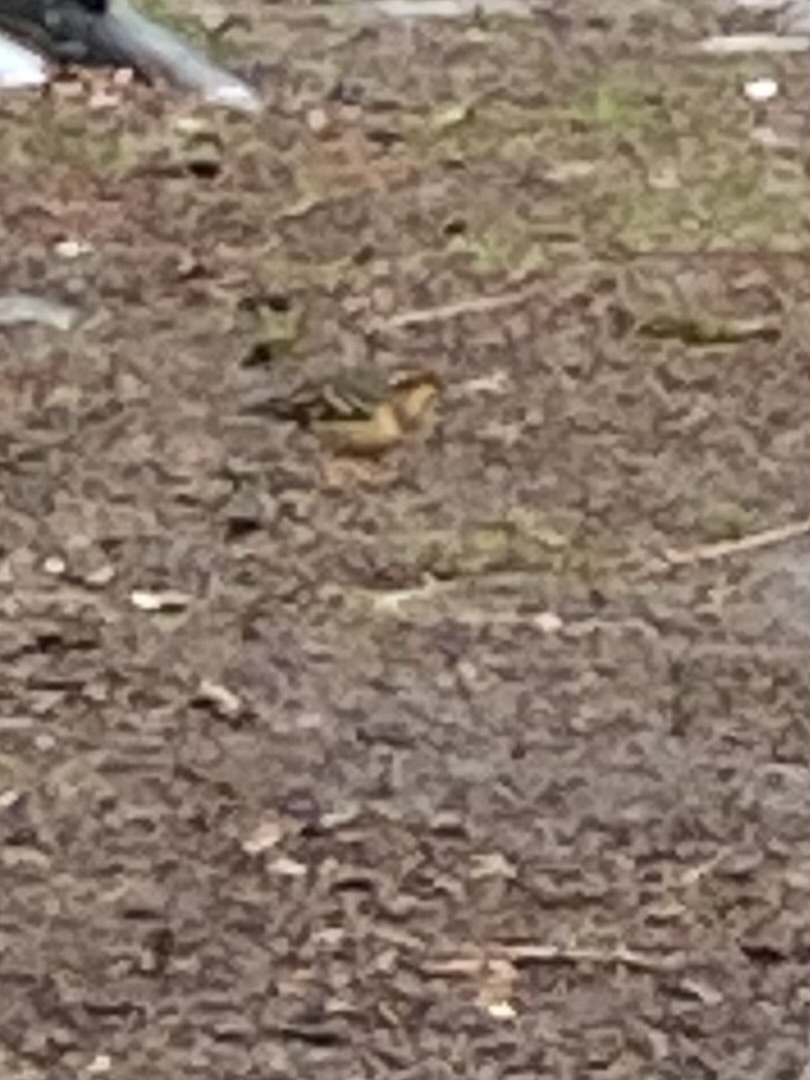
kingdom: Animalia
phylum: Chordata
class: Aves
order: Passeriformes
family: Turdidae
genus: Ixoreus
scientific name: Ixoreus naevius
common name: Varied thrush
